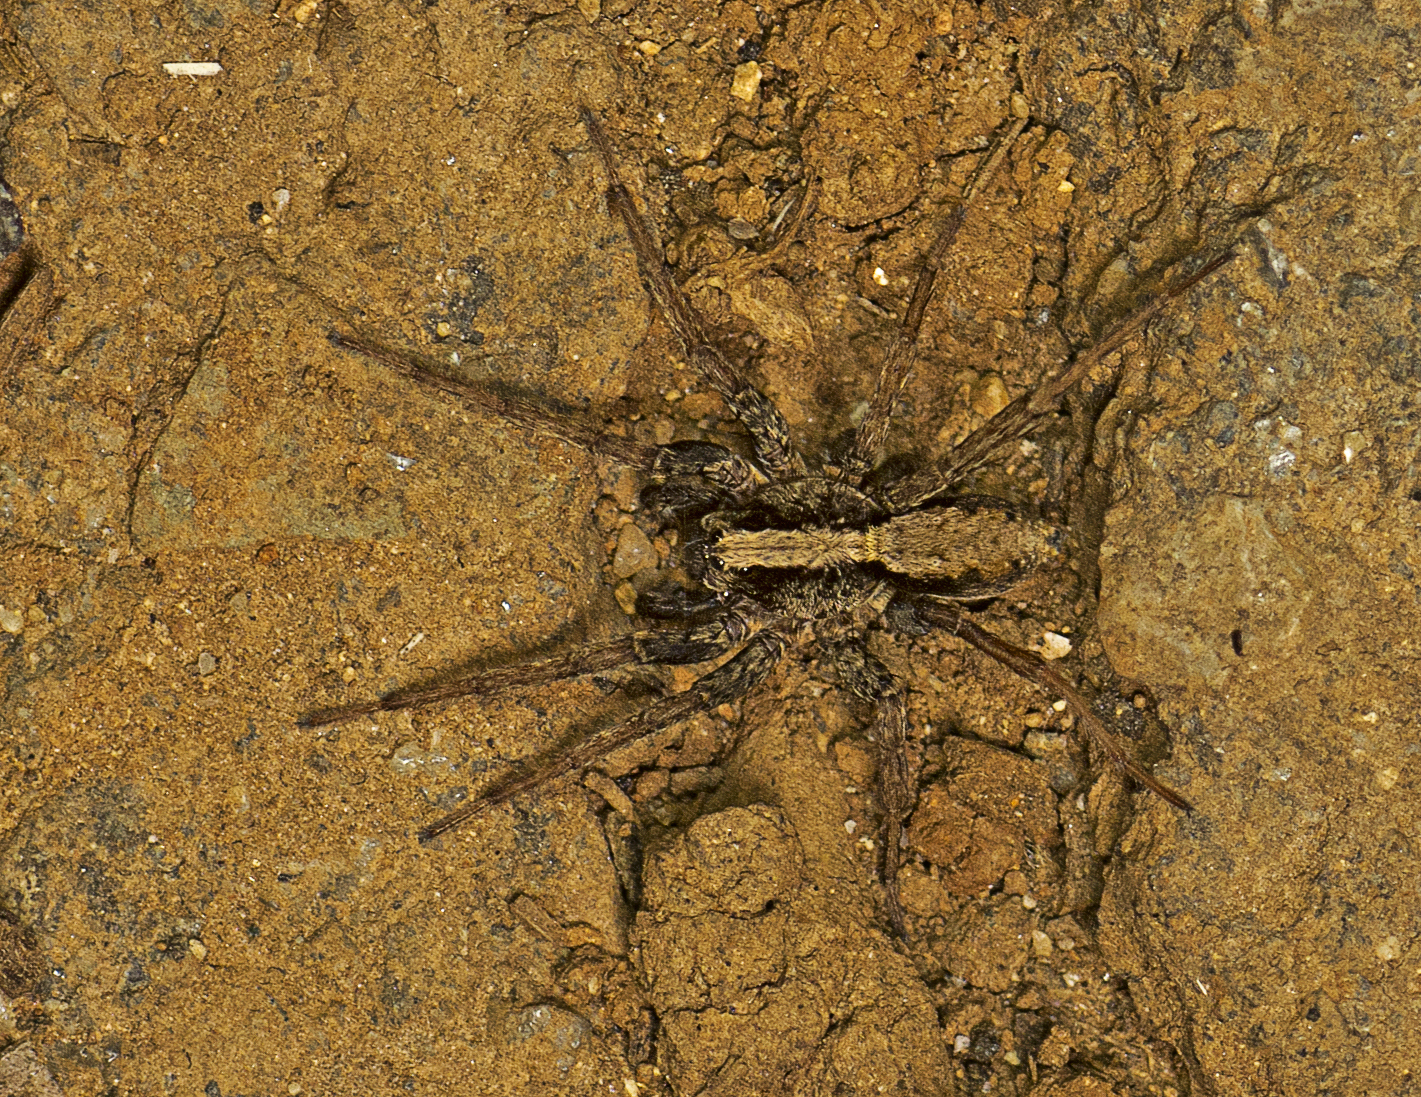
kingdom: Animalia
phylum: Arthropoda
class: Arachnida
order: Araneae
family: Lycosidae
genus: Venatrix
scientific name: Venatrix brisbanae
